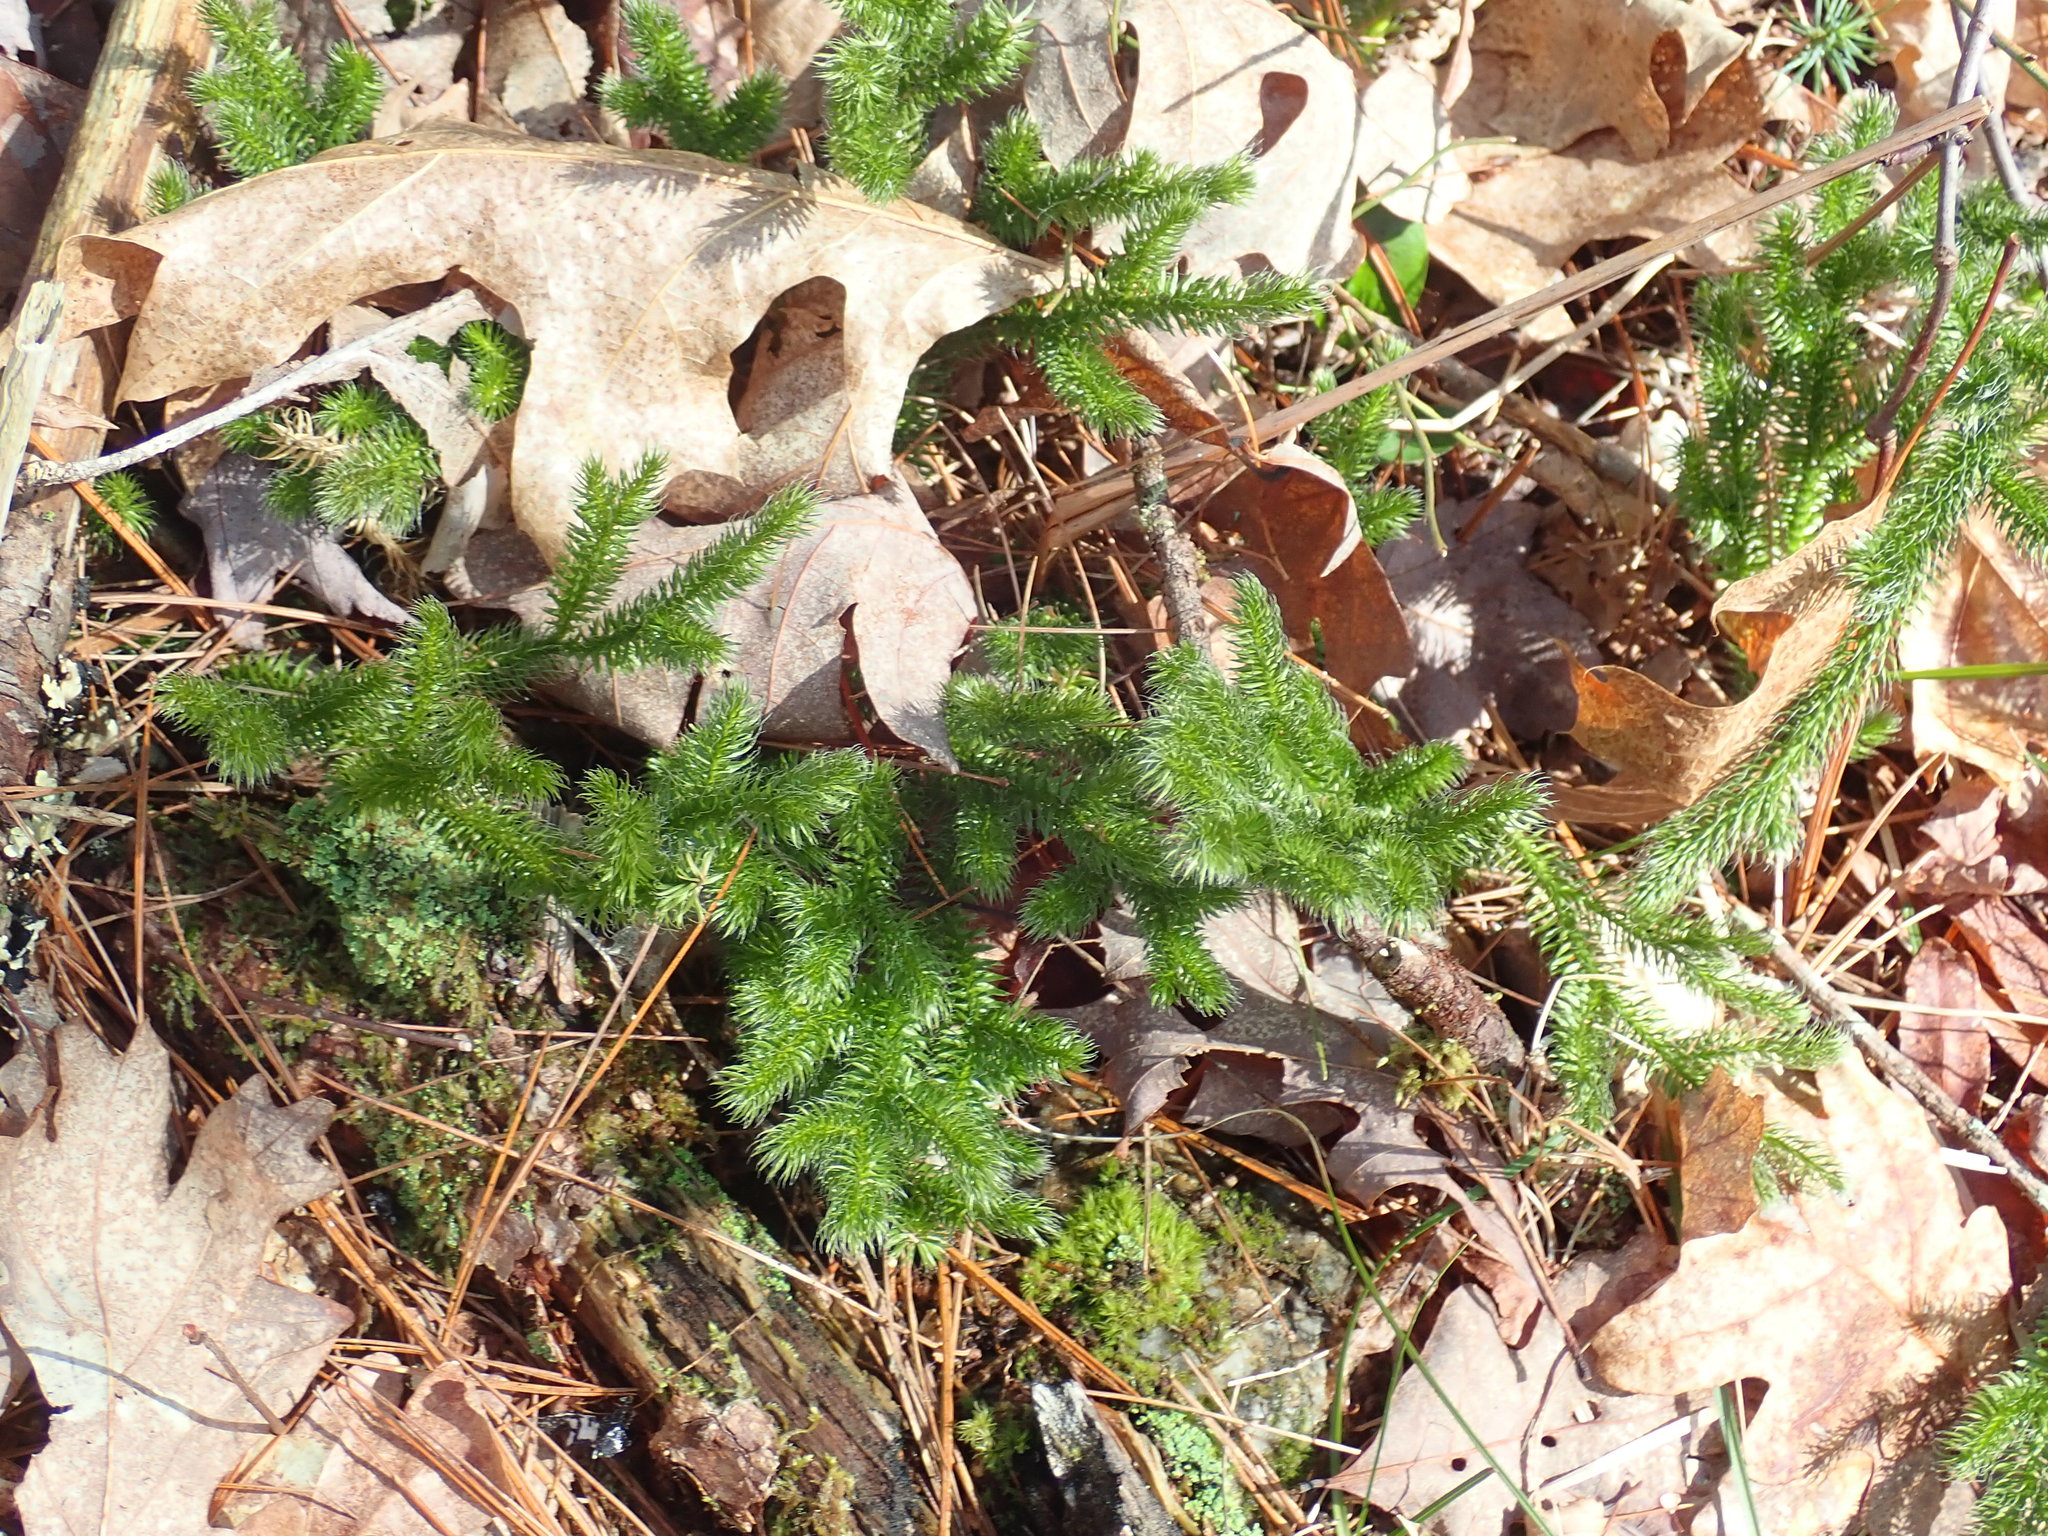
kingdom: Plantae
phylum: Tracheophyta
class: Lycopodiopsida
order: Lycopodiales
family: Lycopodiaceae
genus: Lycopodium
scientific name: Lycopodium clavatum
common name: Stag's-horn clubmoss
